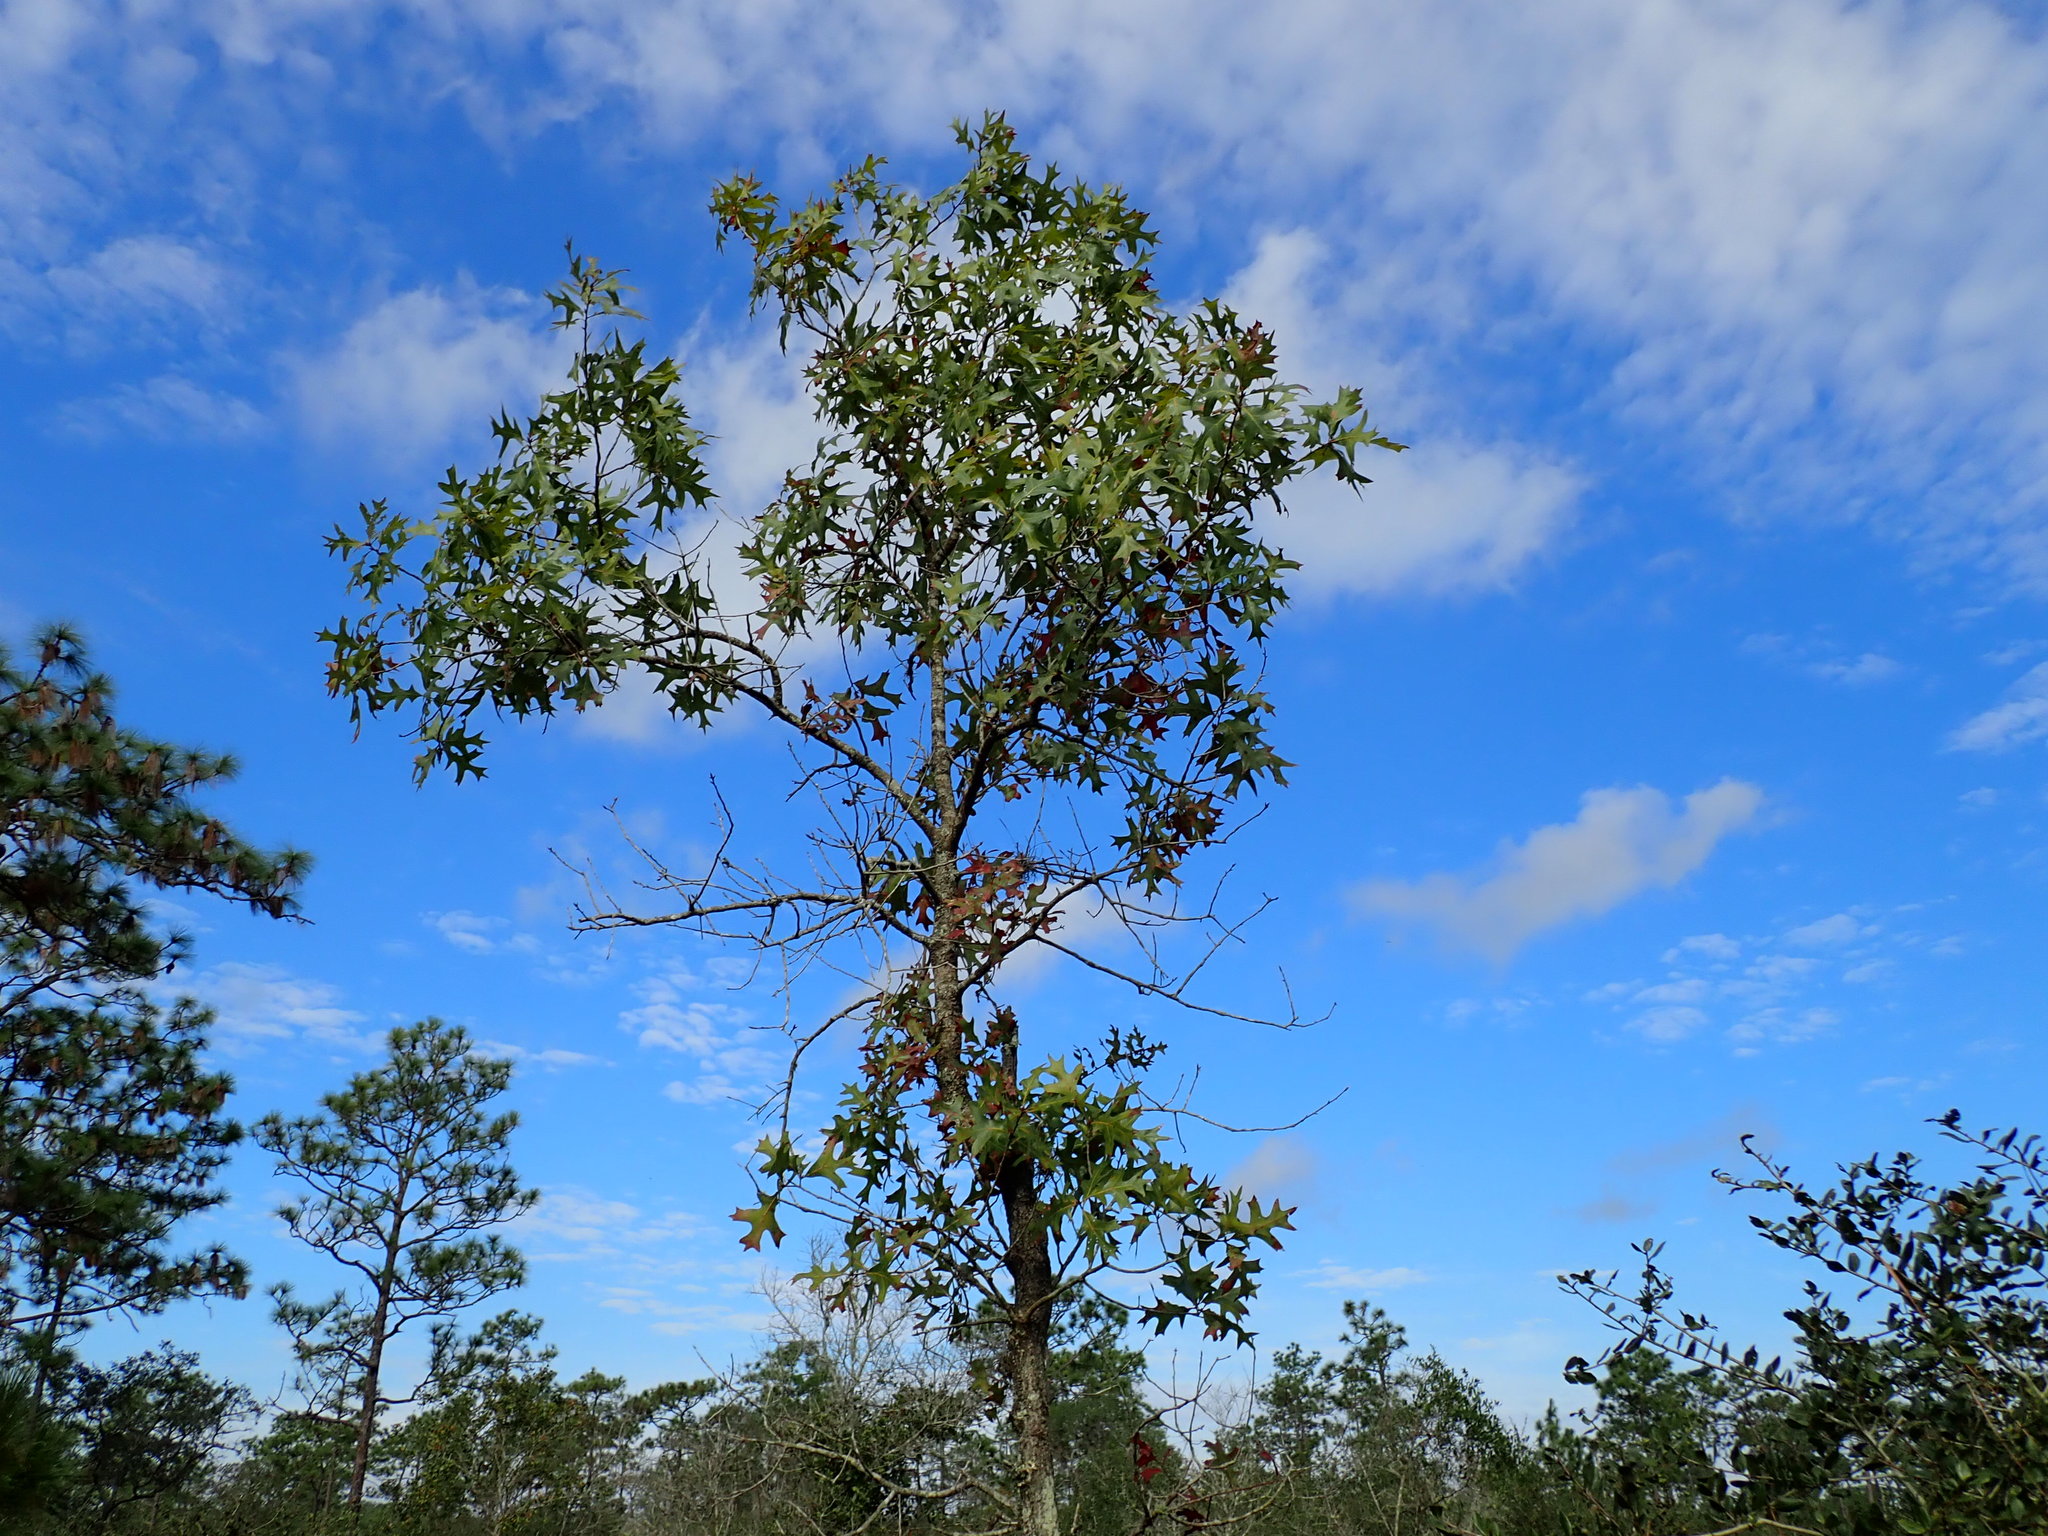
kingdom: Plantae
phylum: Tracheophyta
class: Magnoliopsida
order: Fagales
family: Fagaceae
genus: Quercus
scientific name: Quercus laevis
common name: Turkey oak
